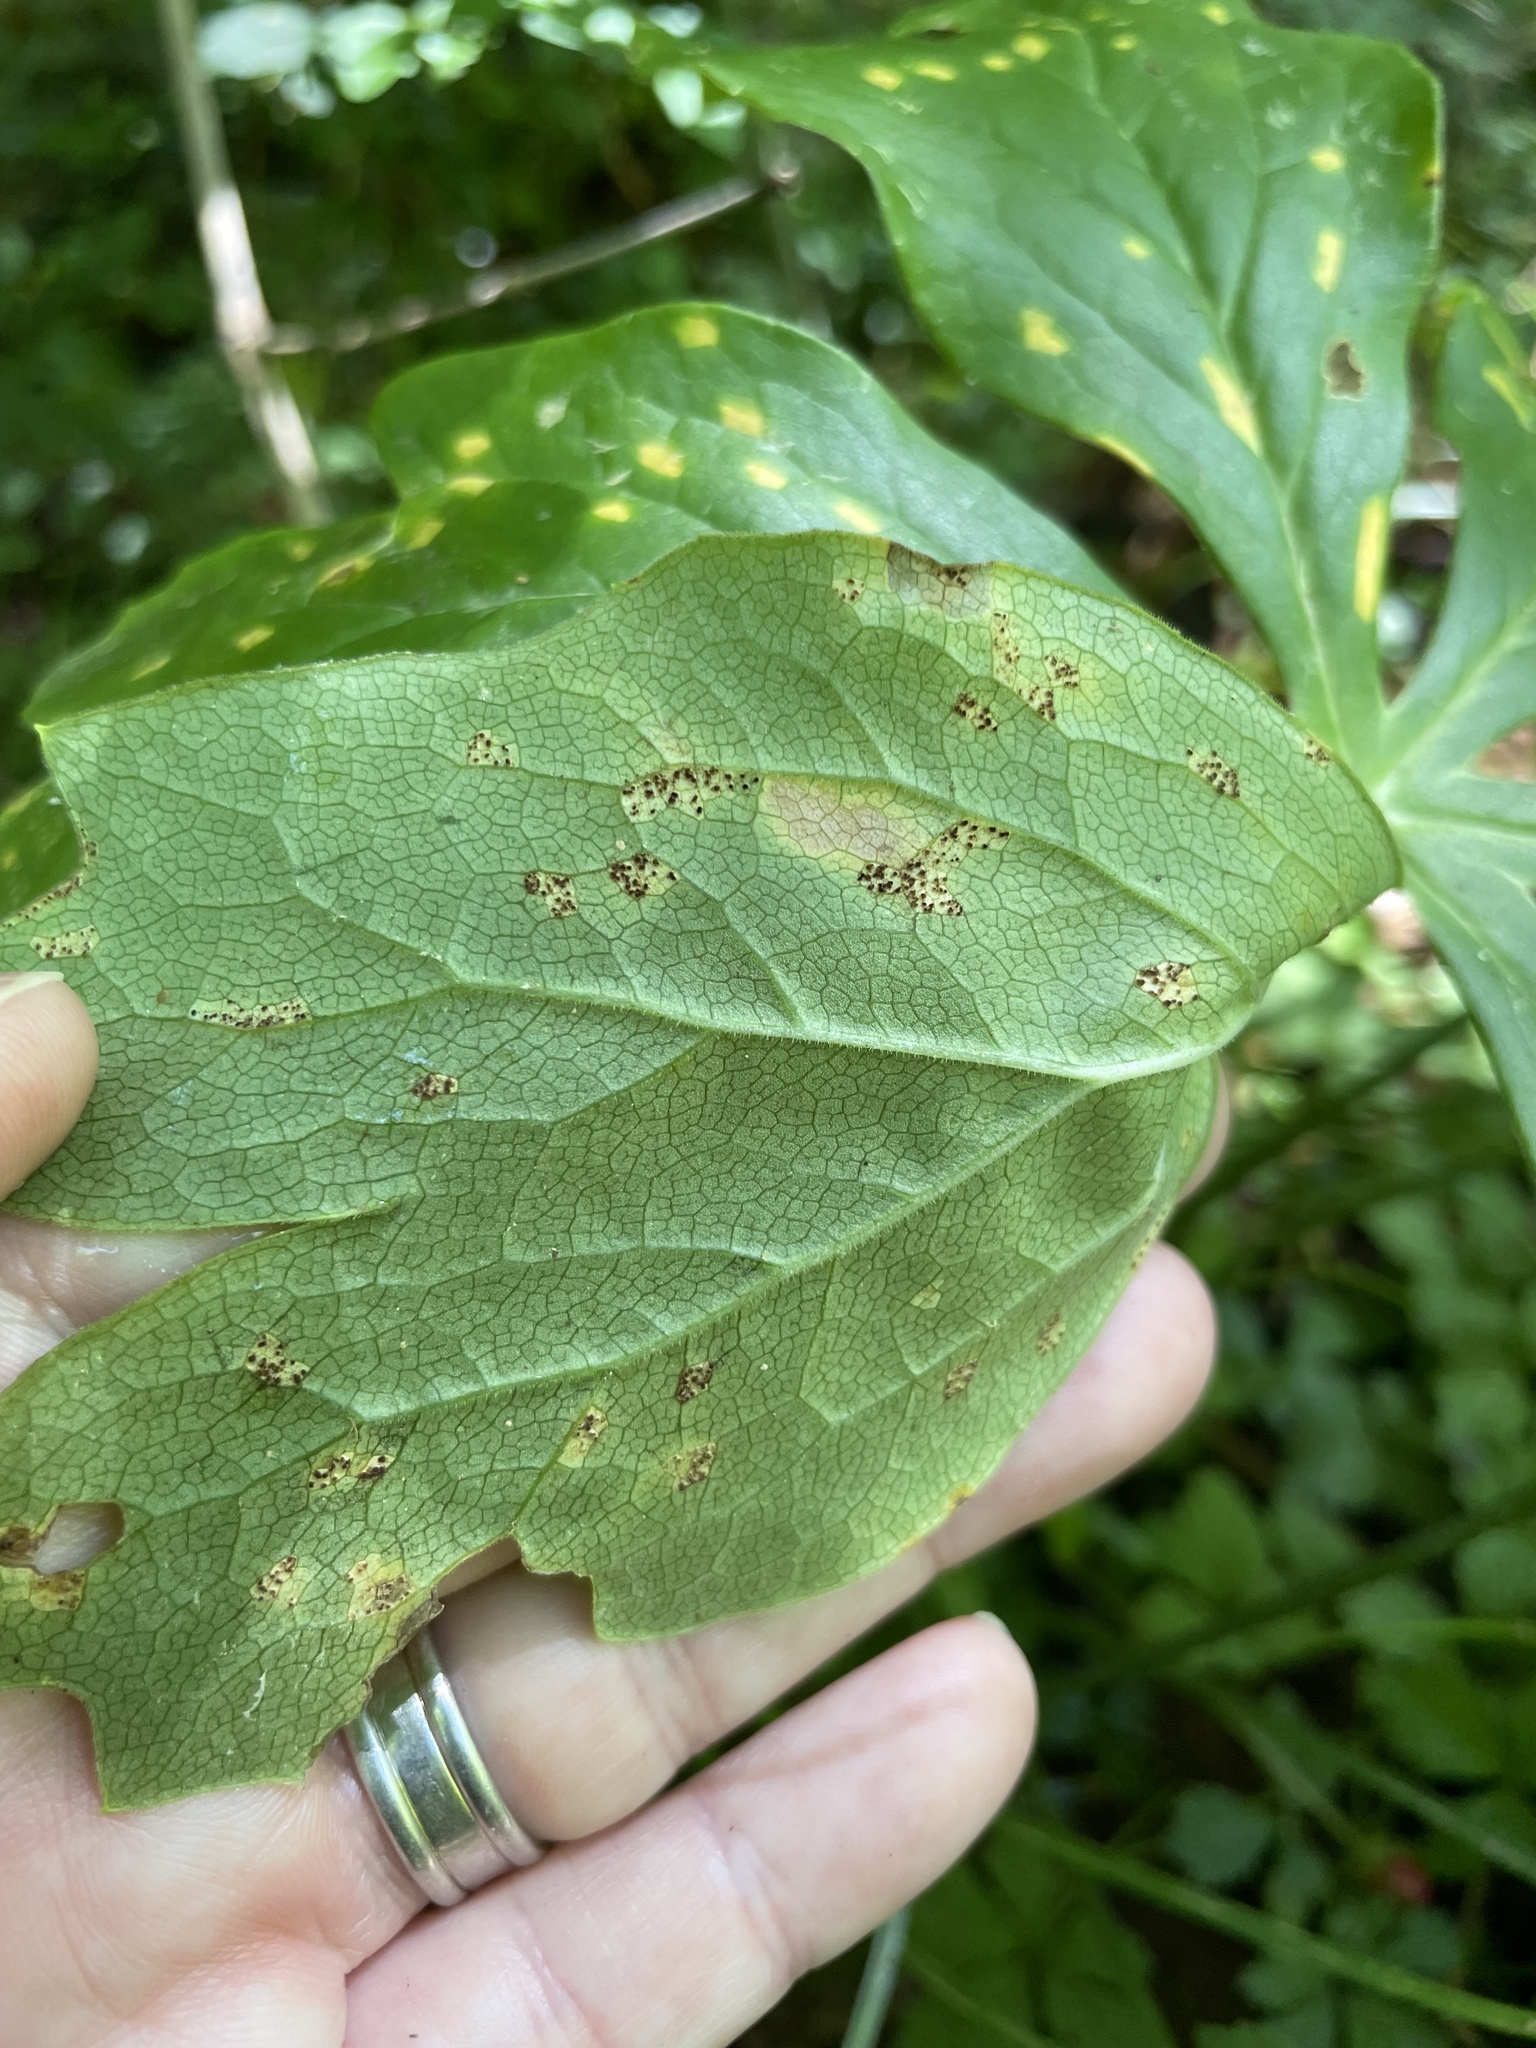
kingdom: Fungi
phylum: Basidiomycota
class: Pucciniomycetes
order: Pucciniales
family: Pucciniaceae
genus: Puccinia
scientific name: Puccinia podophylli
